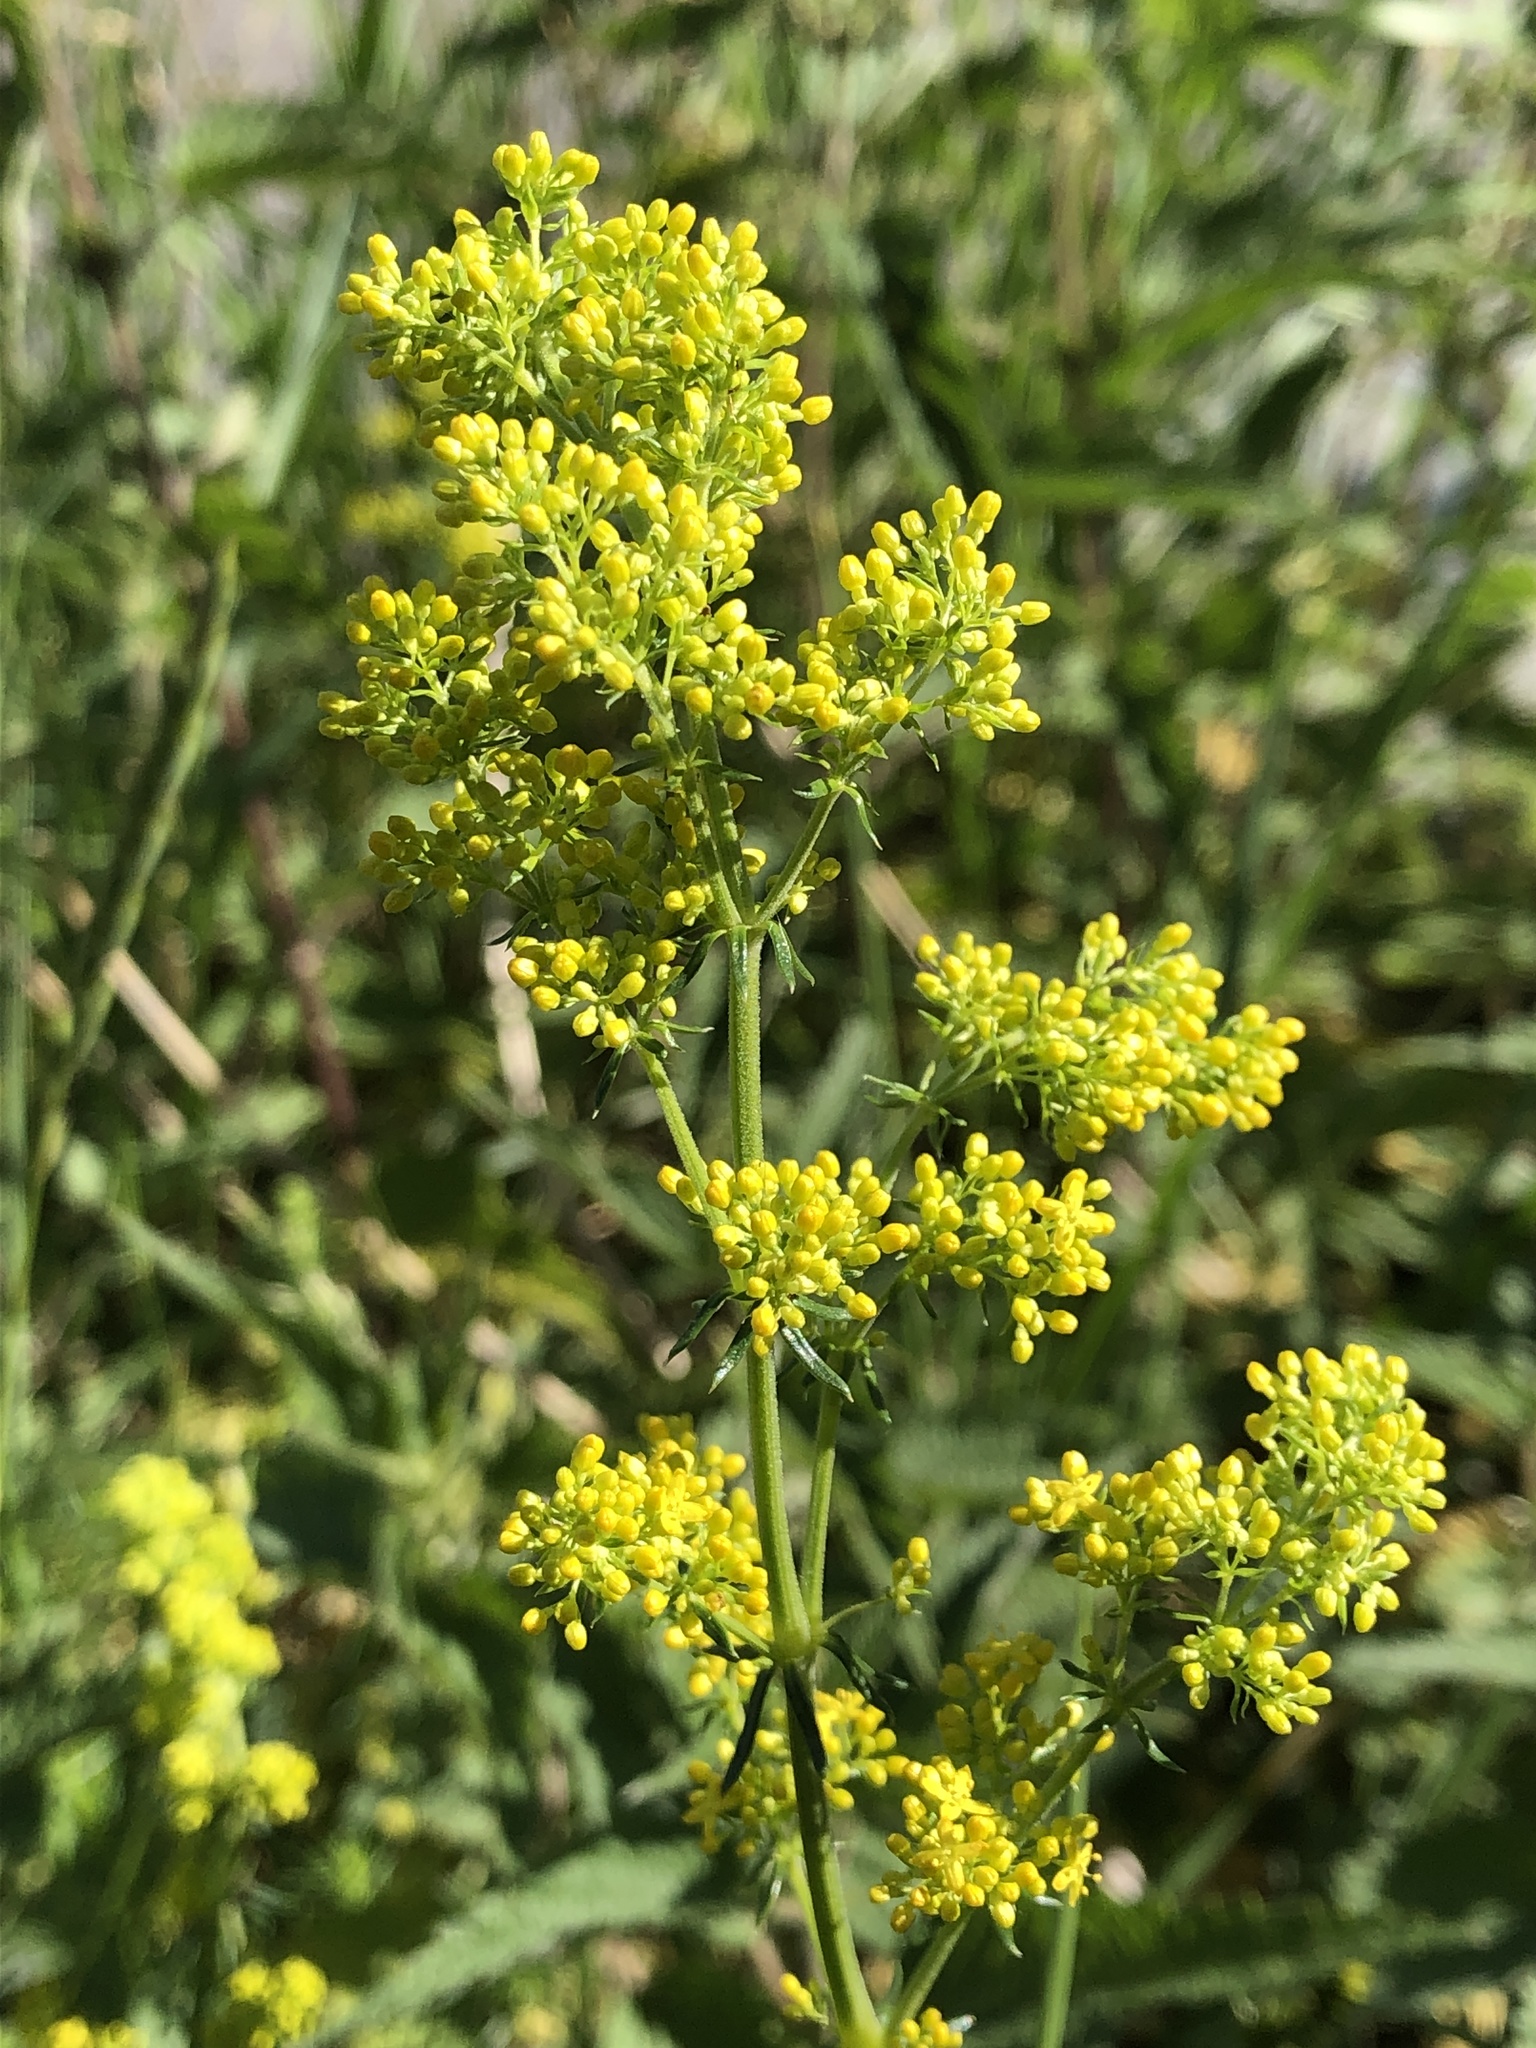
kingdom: Plantae
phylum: Tracheophyta
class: Magnoliopsida
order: Gentianales
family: Rubiaceae
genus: Galium
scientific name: Galium verum
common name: Lady's bedstraw
